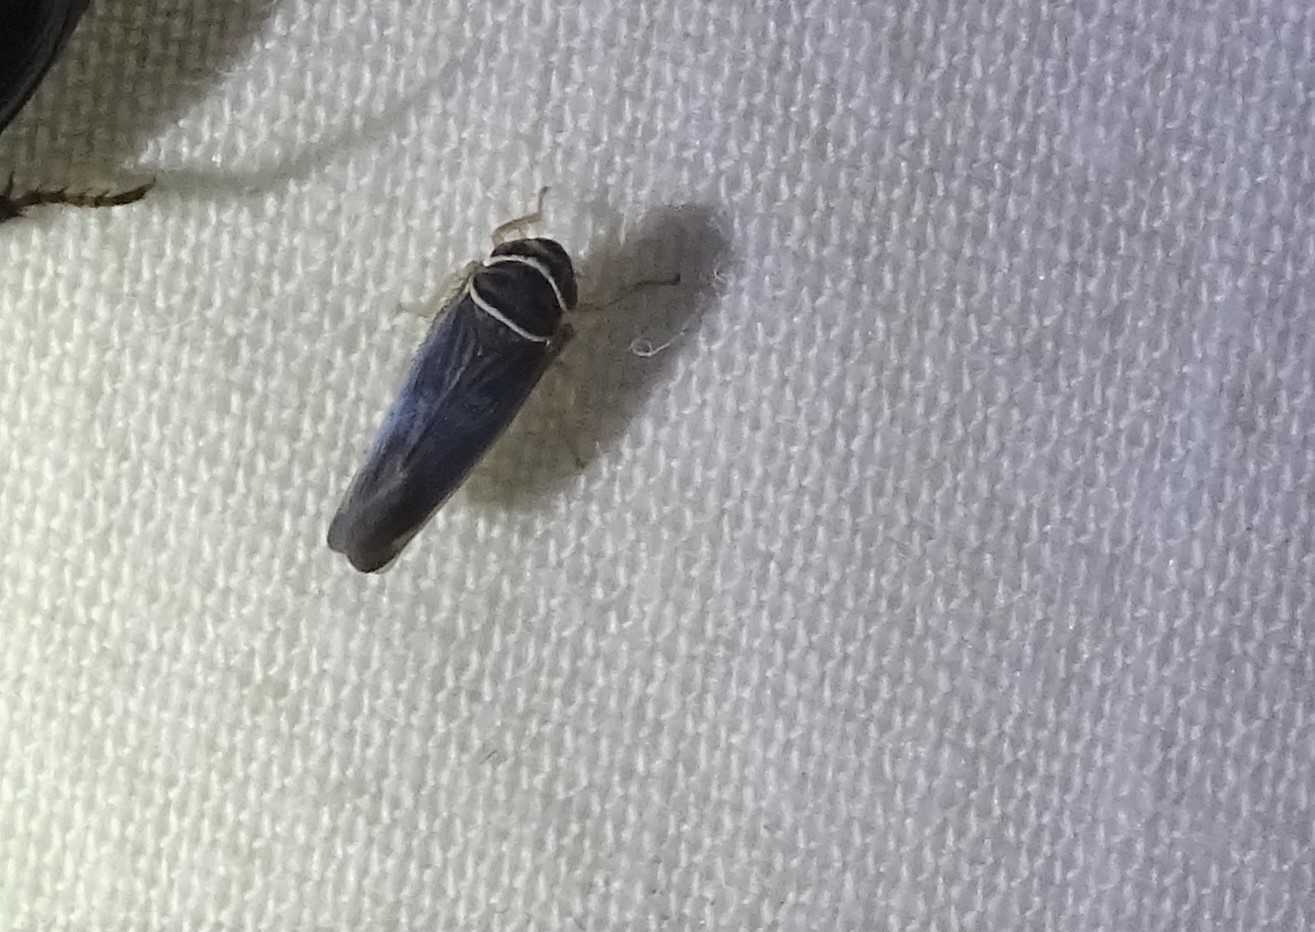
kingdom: Animalia
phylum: Arthropoda
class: Insecta
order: Hemiptera
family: Cicadellidae
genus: Tylozygus
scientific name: Tylozygus bifidus
